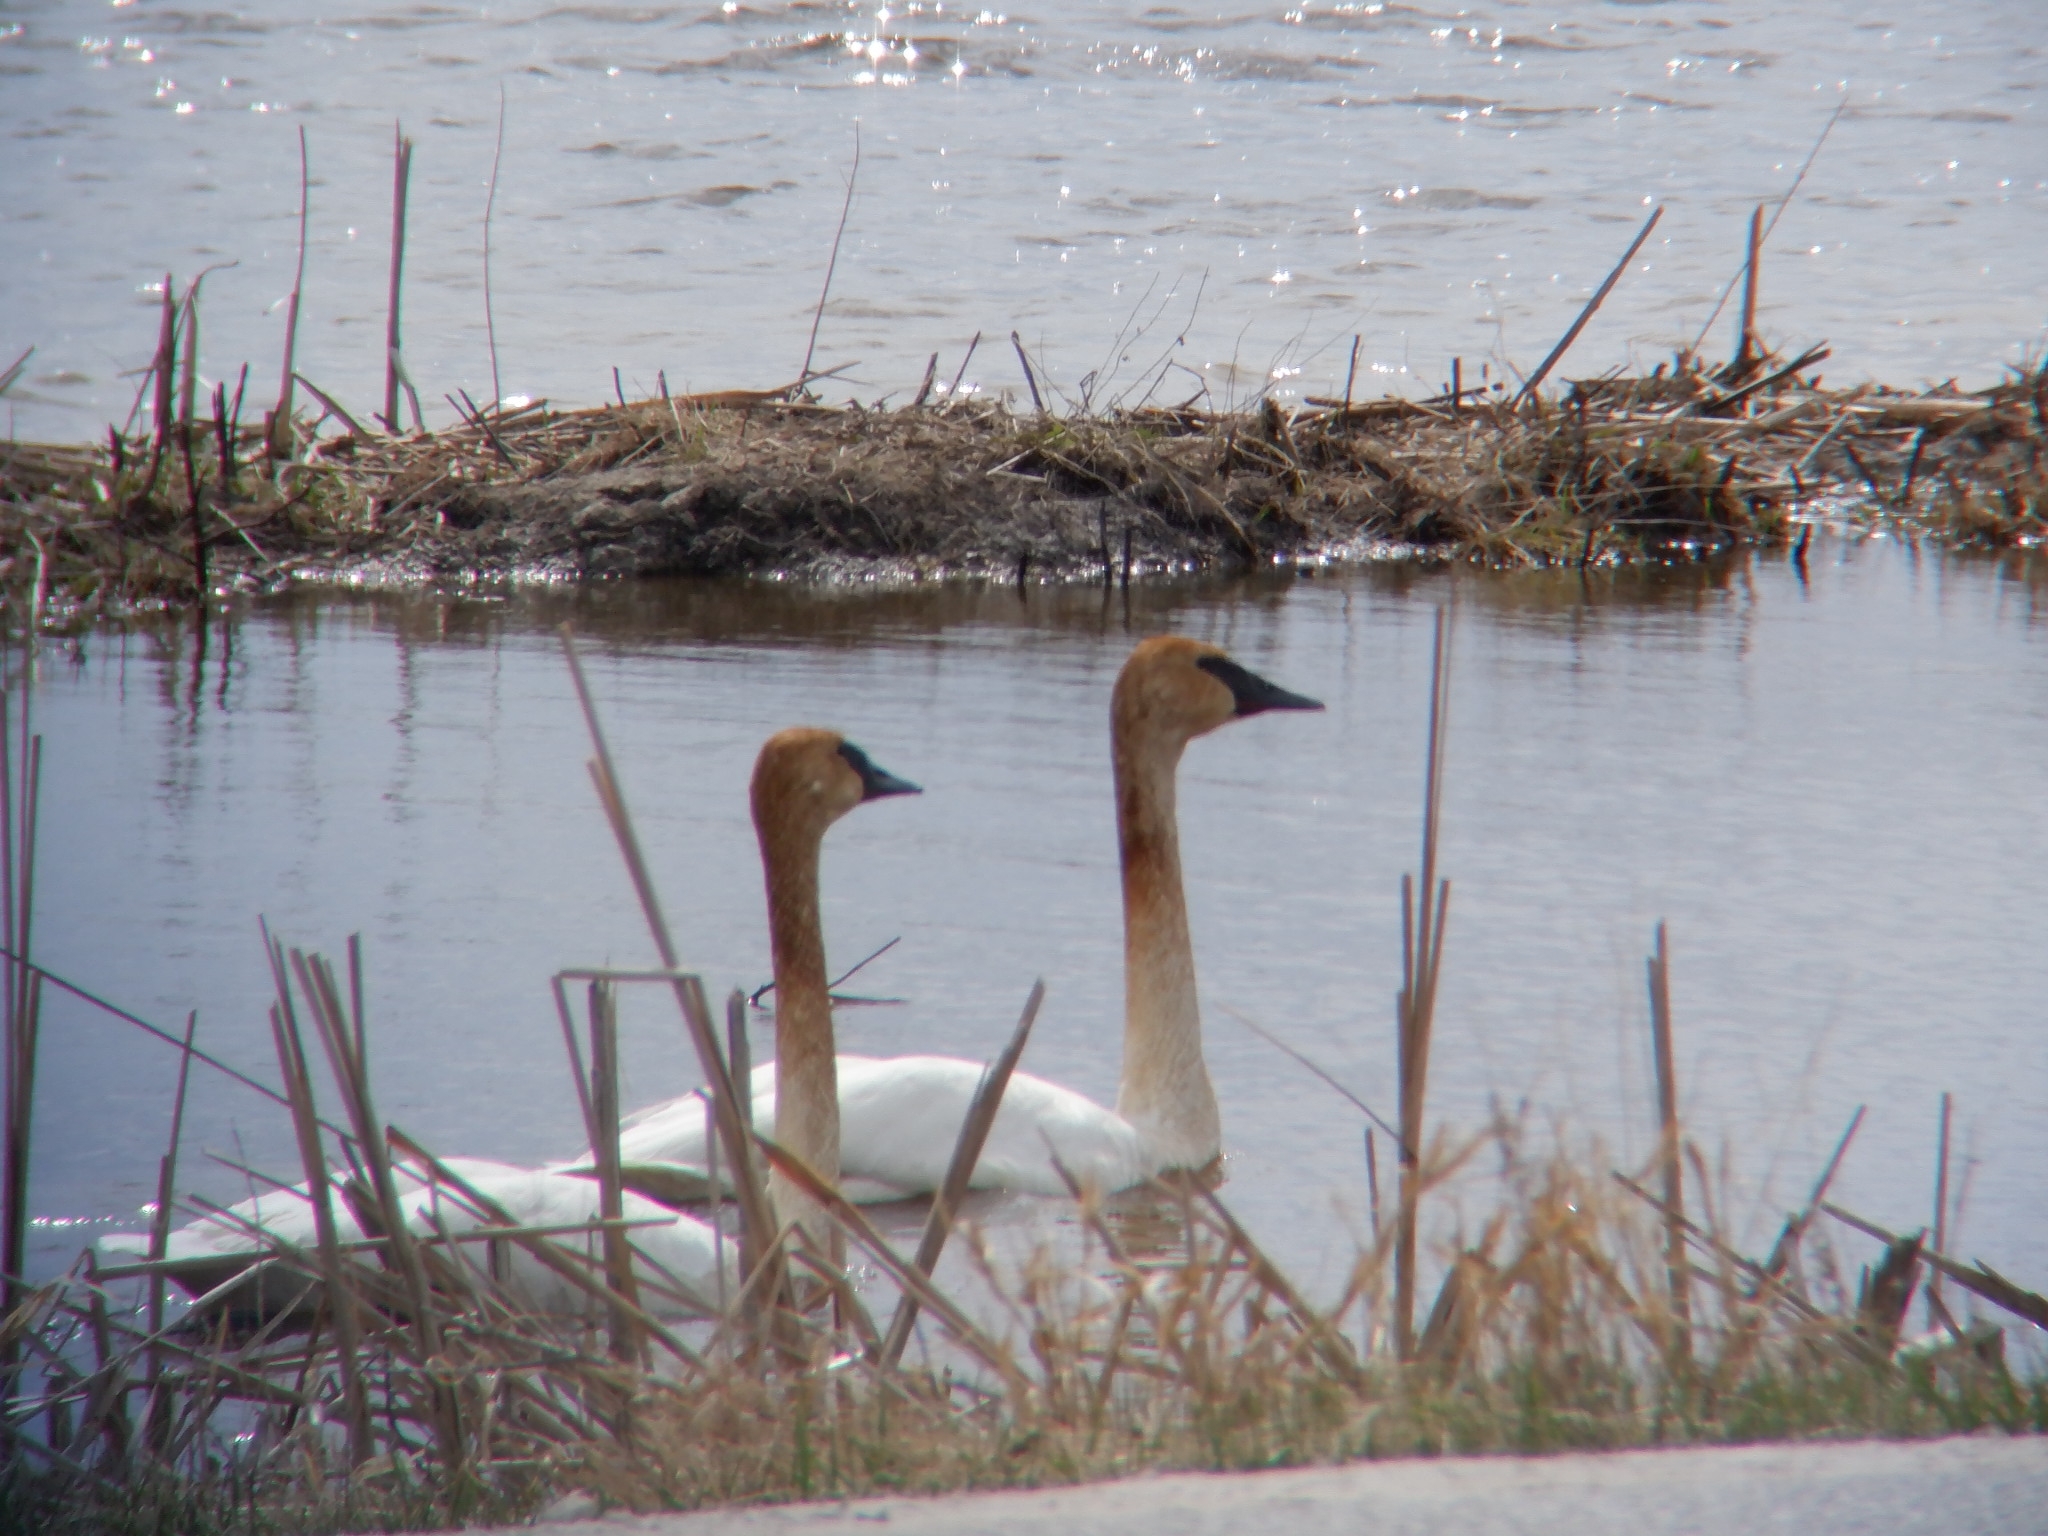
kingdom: Animalia
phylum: Chordata
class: Aves
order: Anseriformes
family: Anatidae
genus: Cygnus
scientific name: Cygnus buccinator
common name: Trumpeter swan
